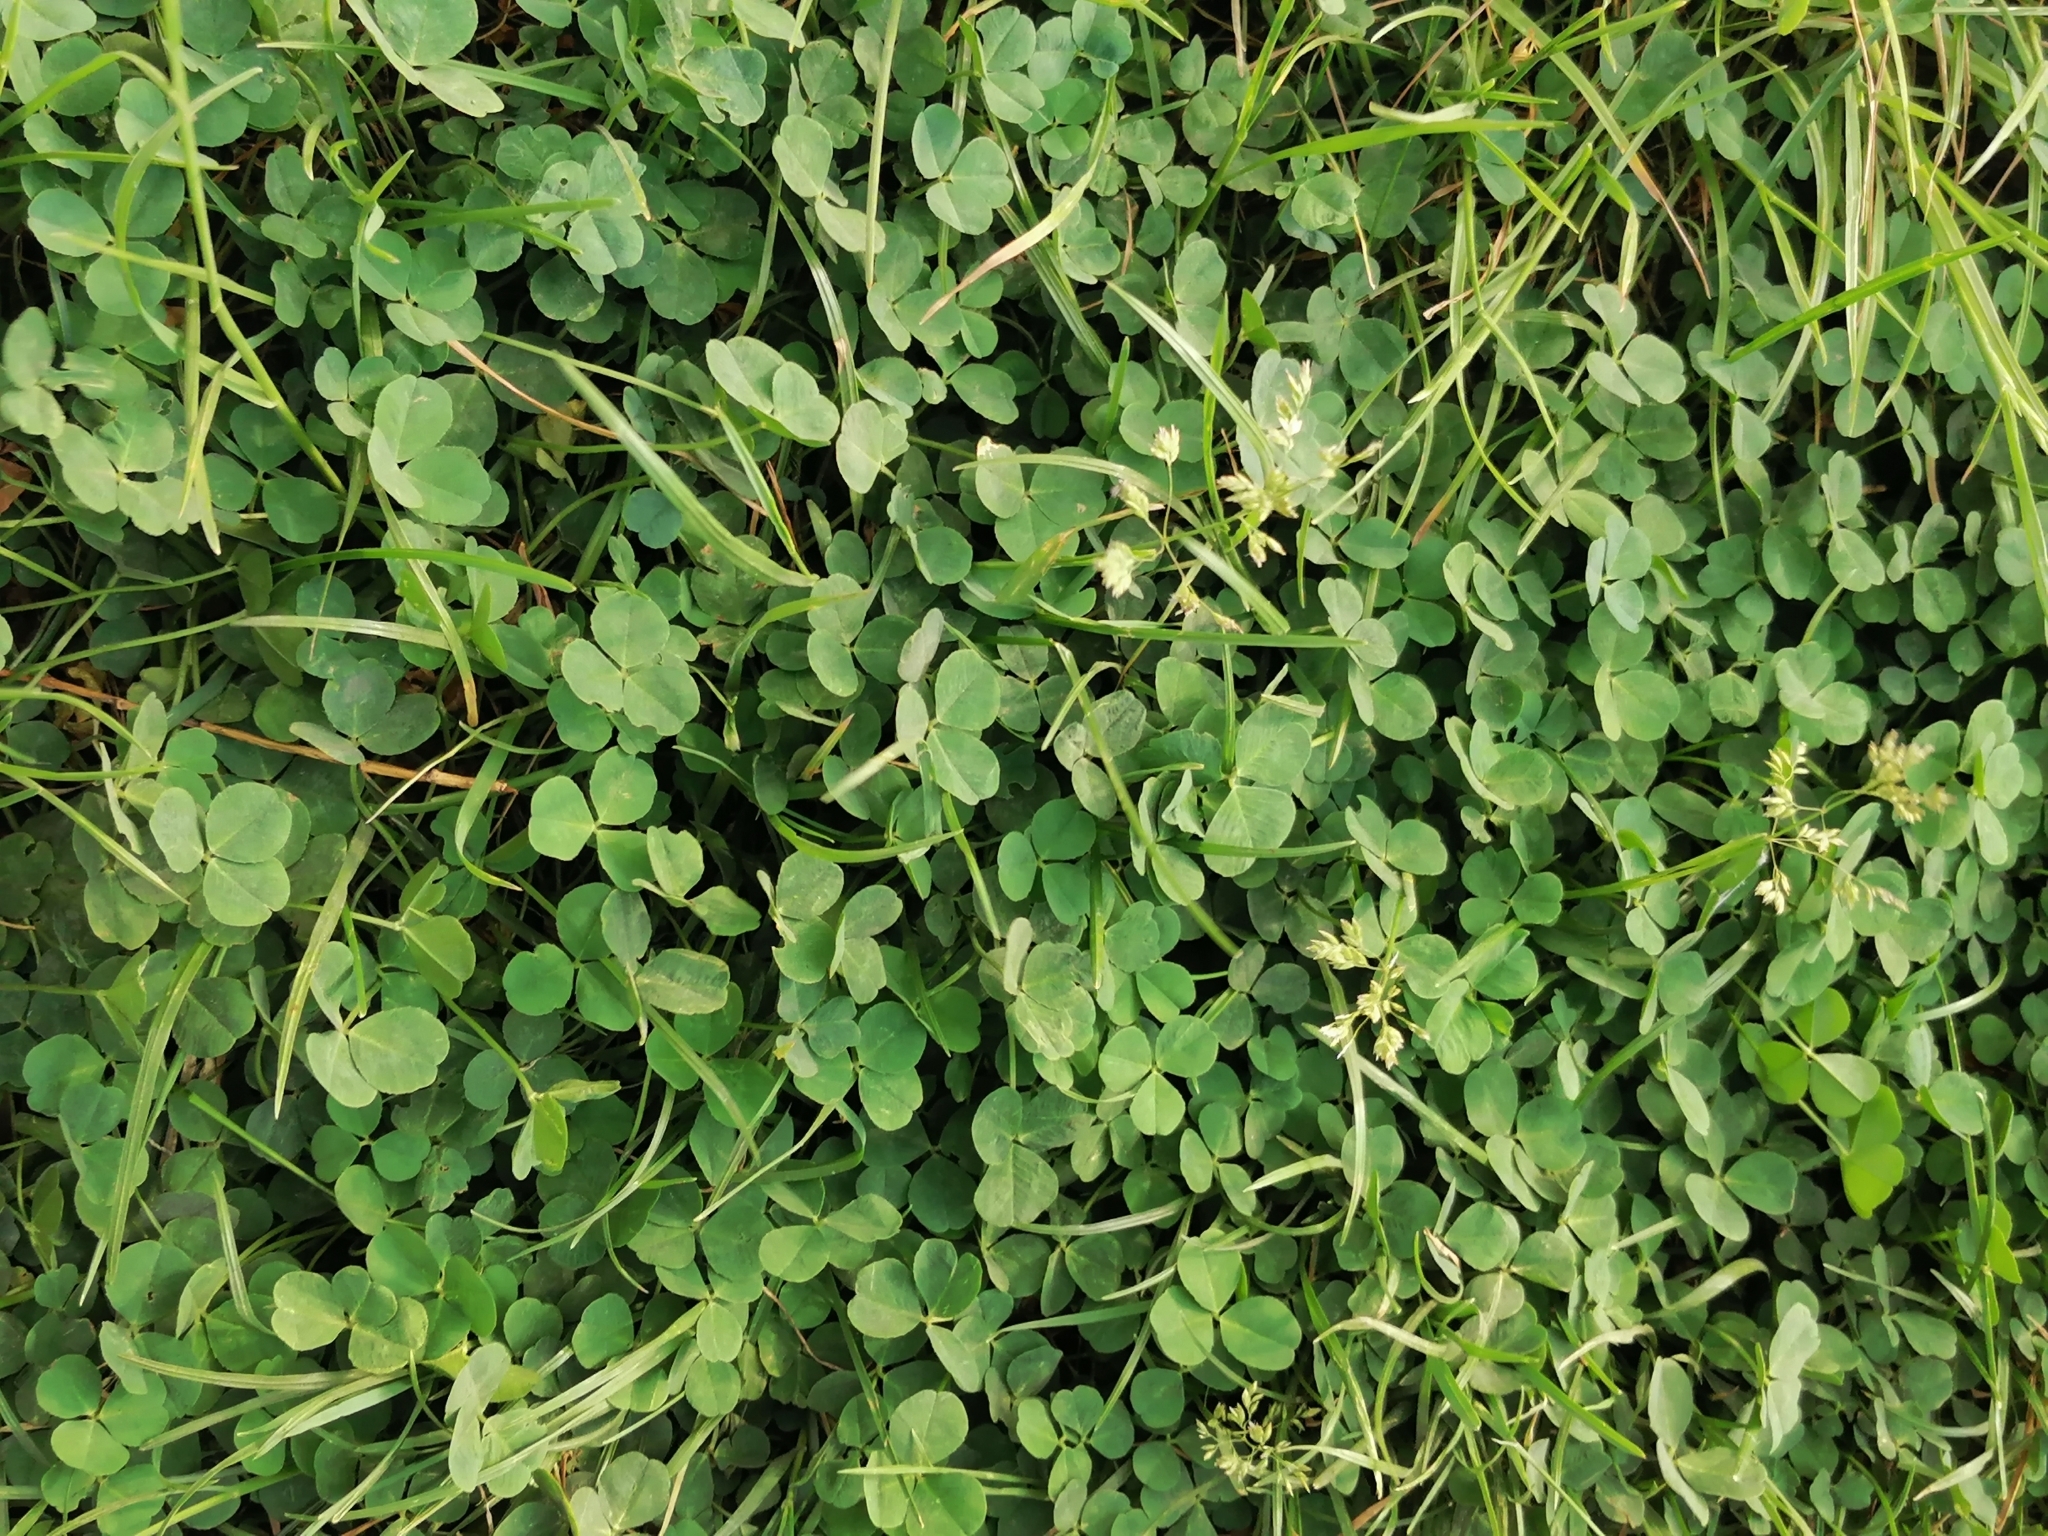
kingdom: Plantae
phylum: Tracheophyta
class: Magnoliopsida
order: Oxalidales
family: Oxalidaceae
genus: Oxalis
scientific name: Oxalis acetosella
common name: Wood-sorrel
